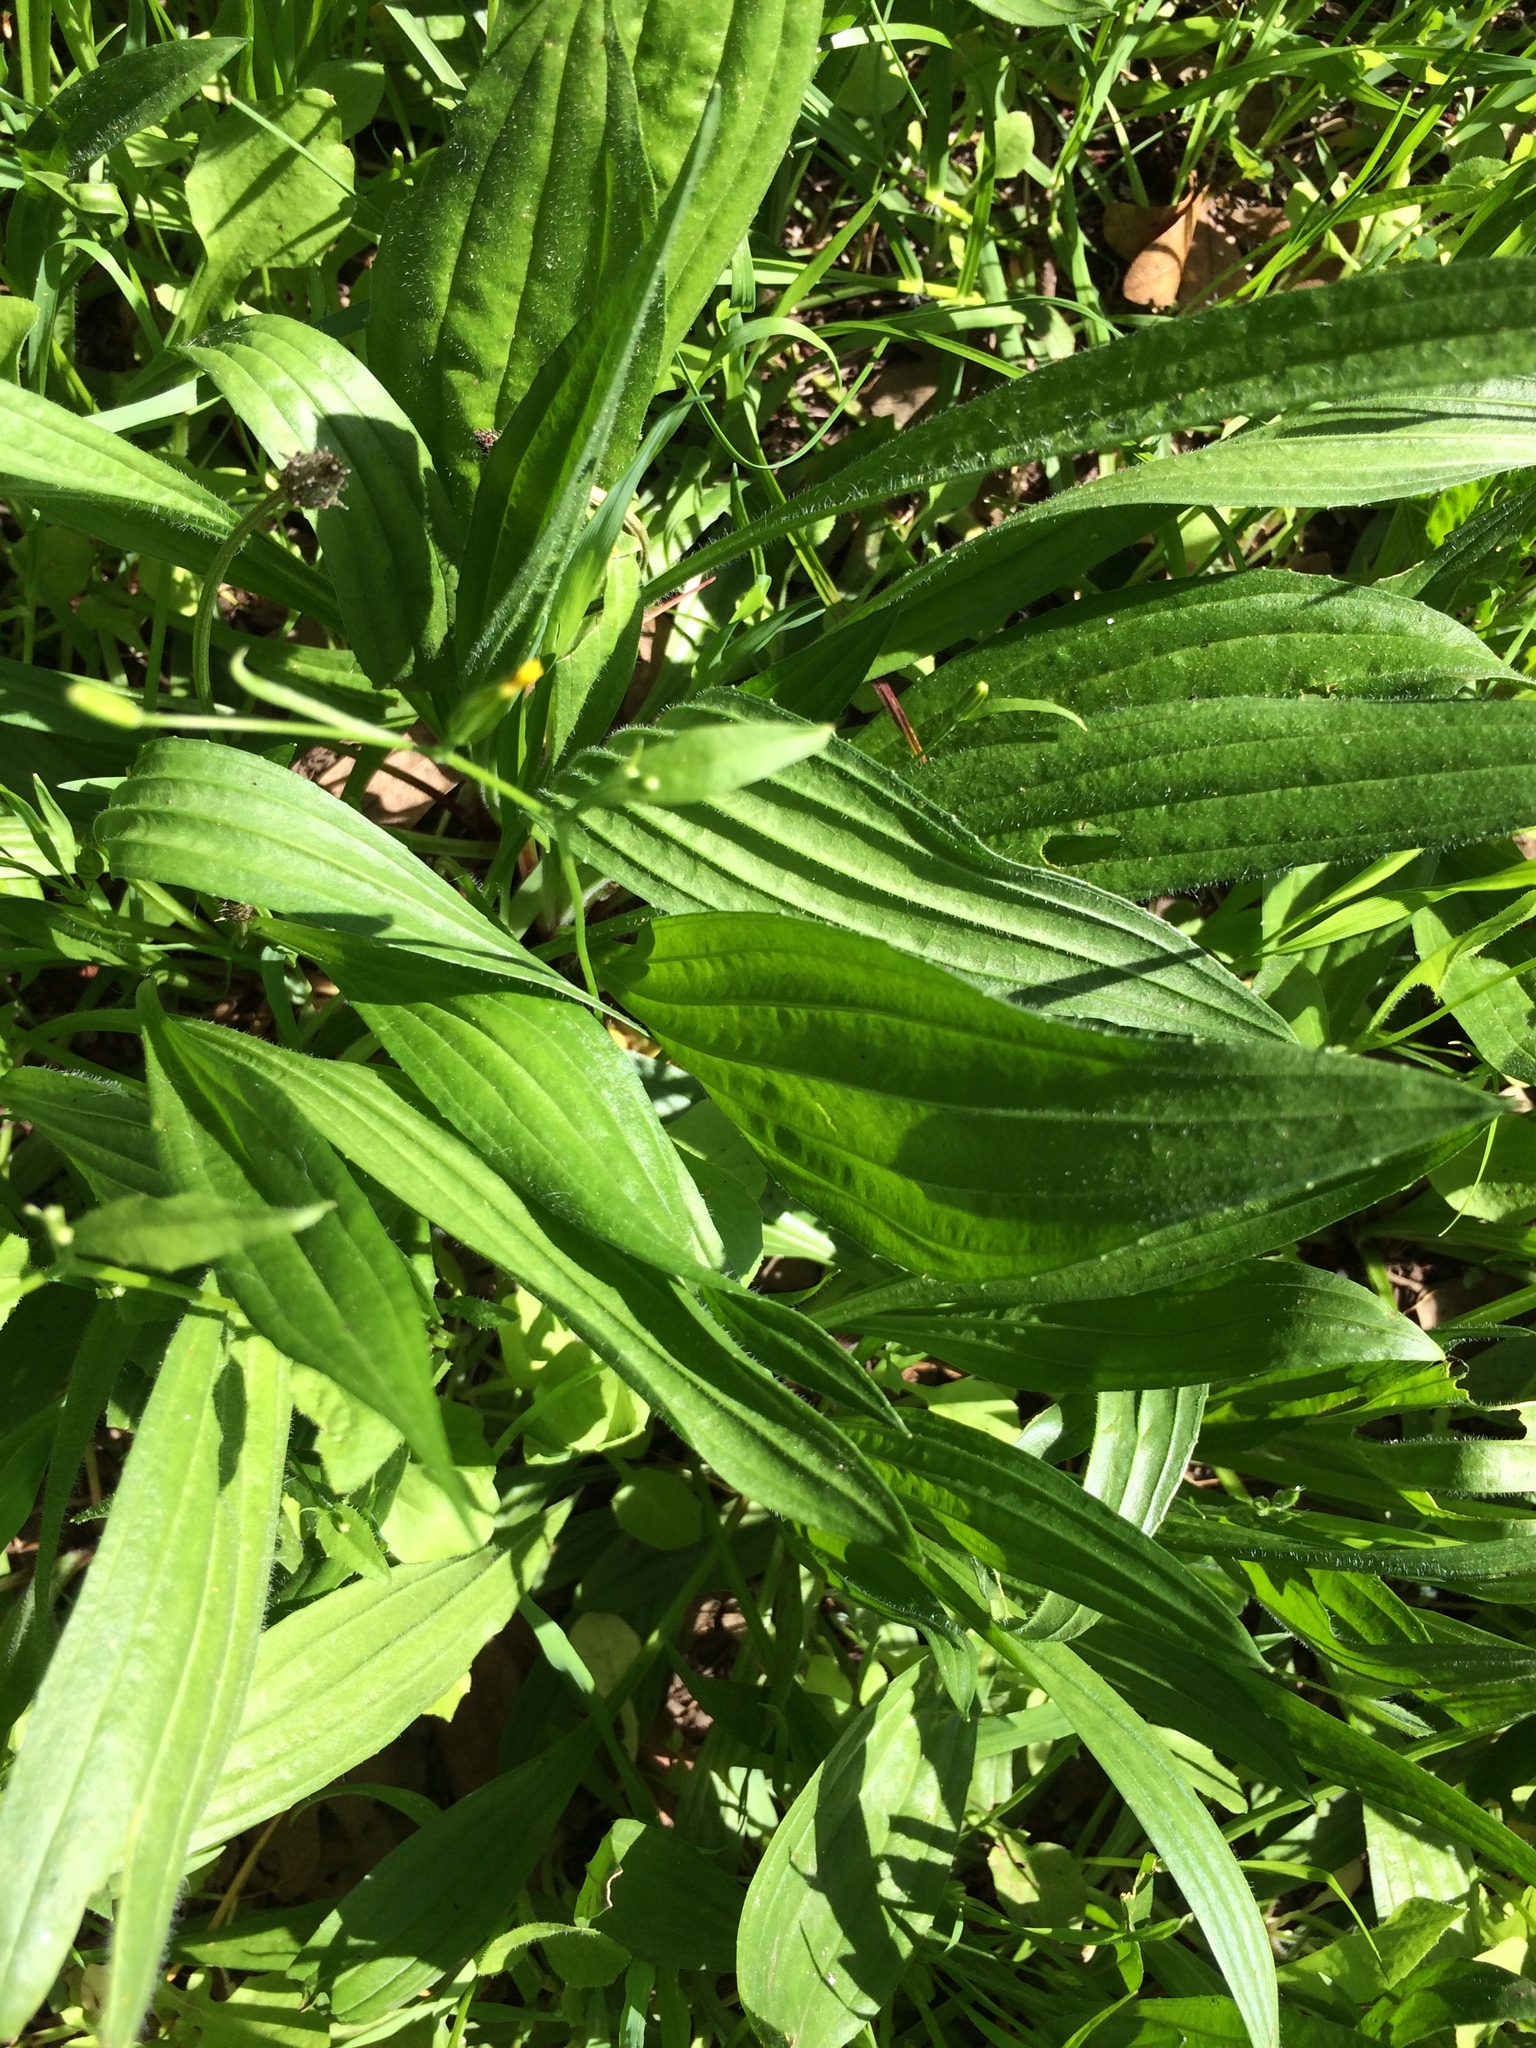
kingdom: Plantae
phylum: Tracheophyta
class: Magnoliopsida
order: Lamiales
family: Plantaginaceae
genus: Plantago
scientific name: Plantago lanceolata
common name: Ribwort plantain
